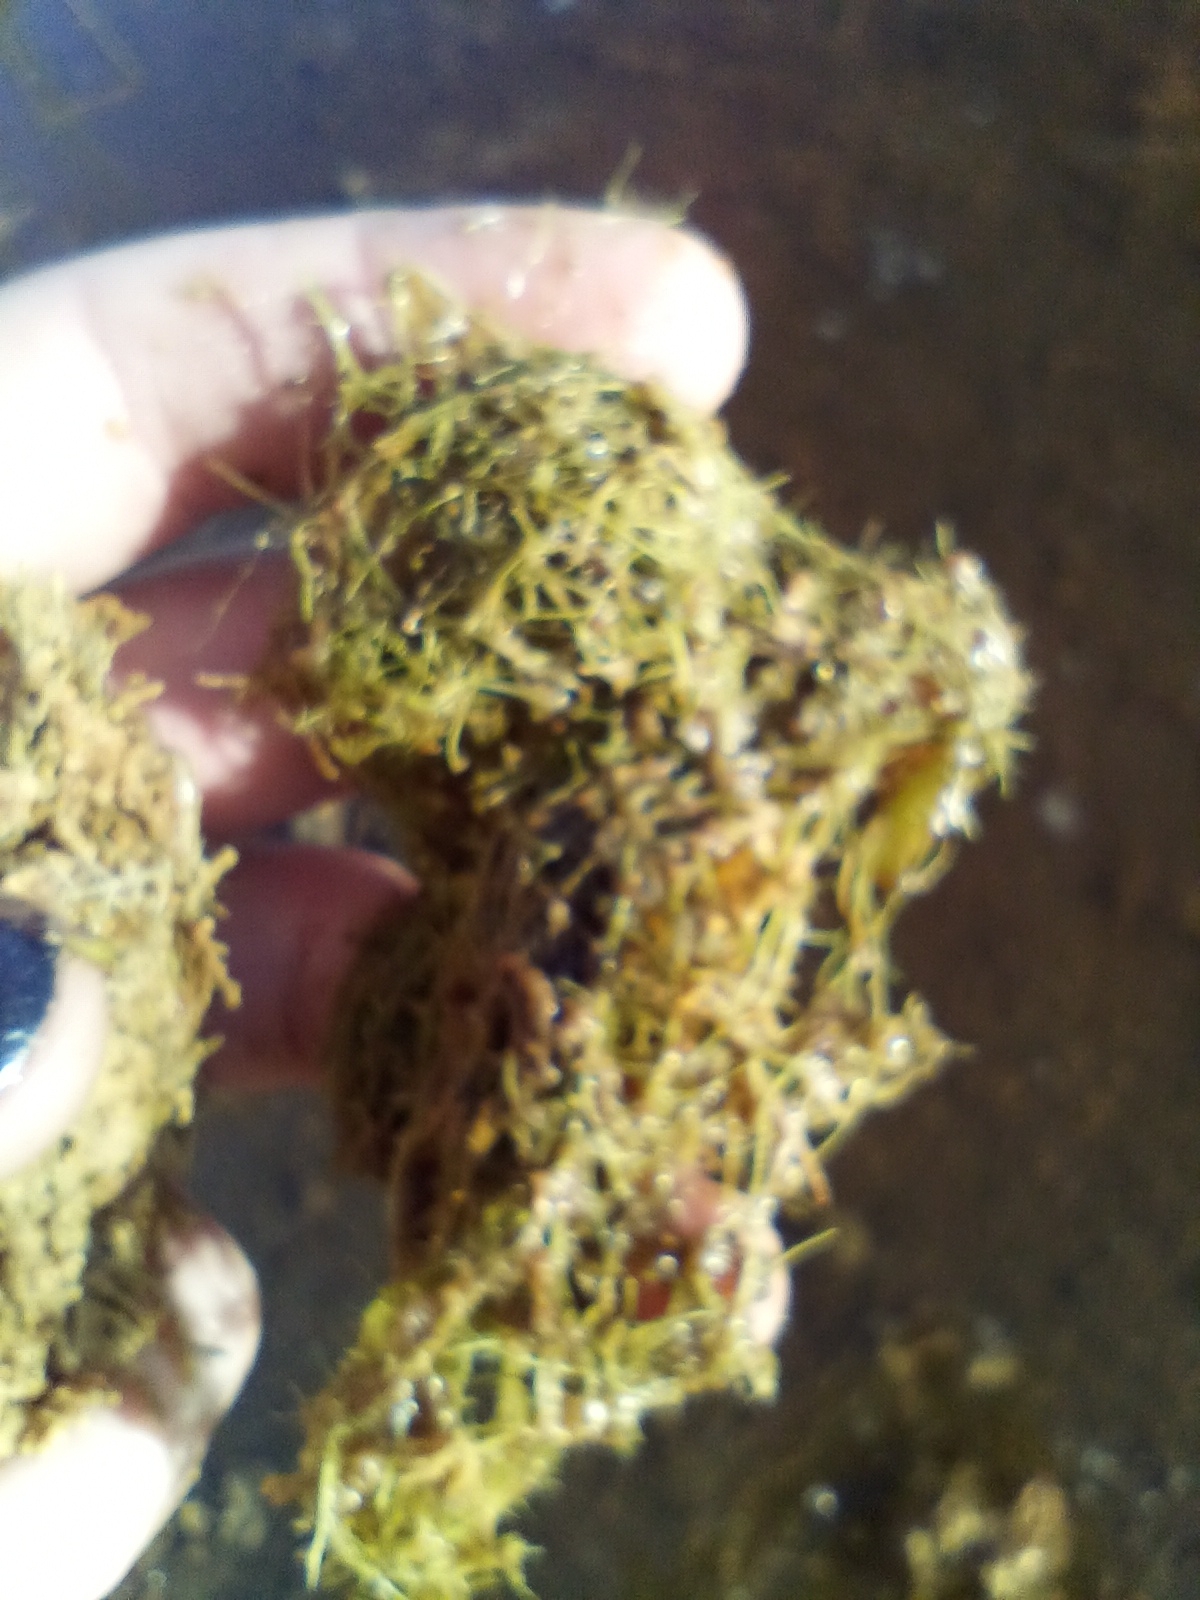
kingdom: Plantae
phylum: Tracheophyta
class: Magnoliopsida
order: Lamiales
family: Lentibulariaceae
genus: Utricularia
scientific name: Utricularia gibba
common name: Humped bladderwort
